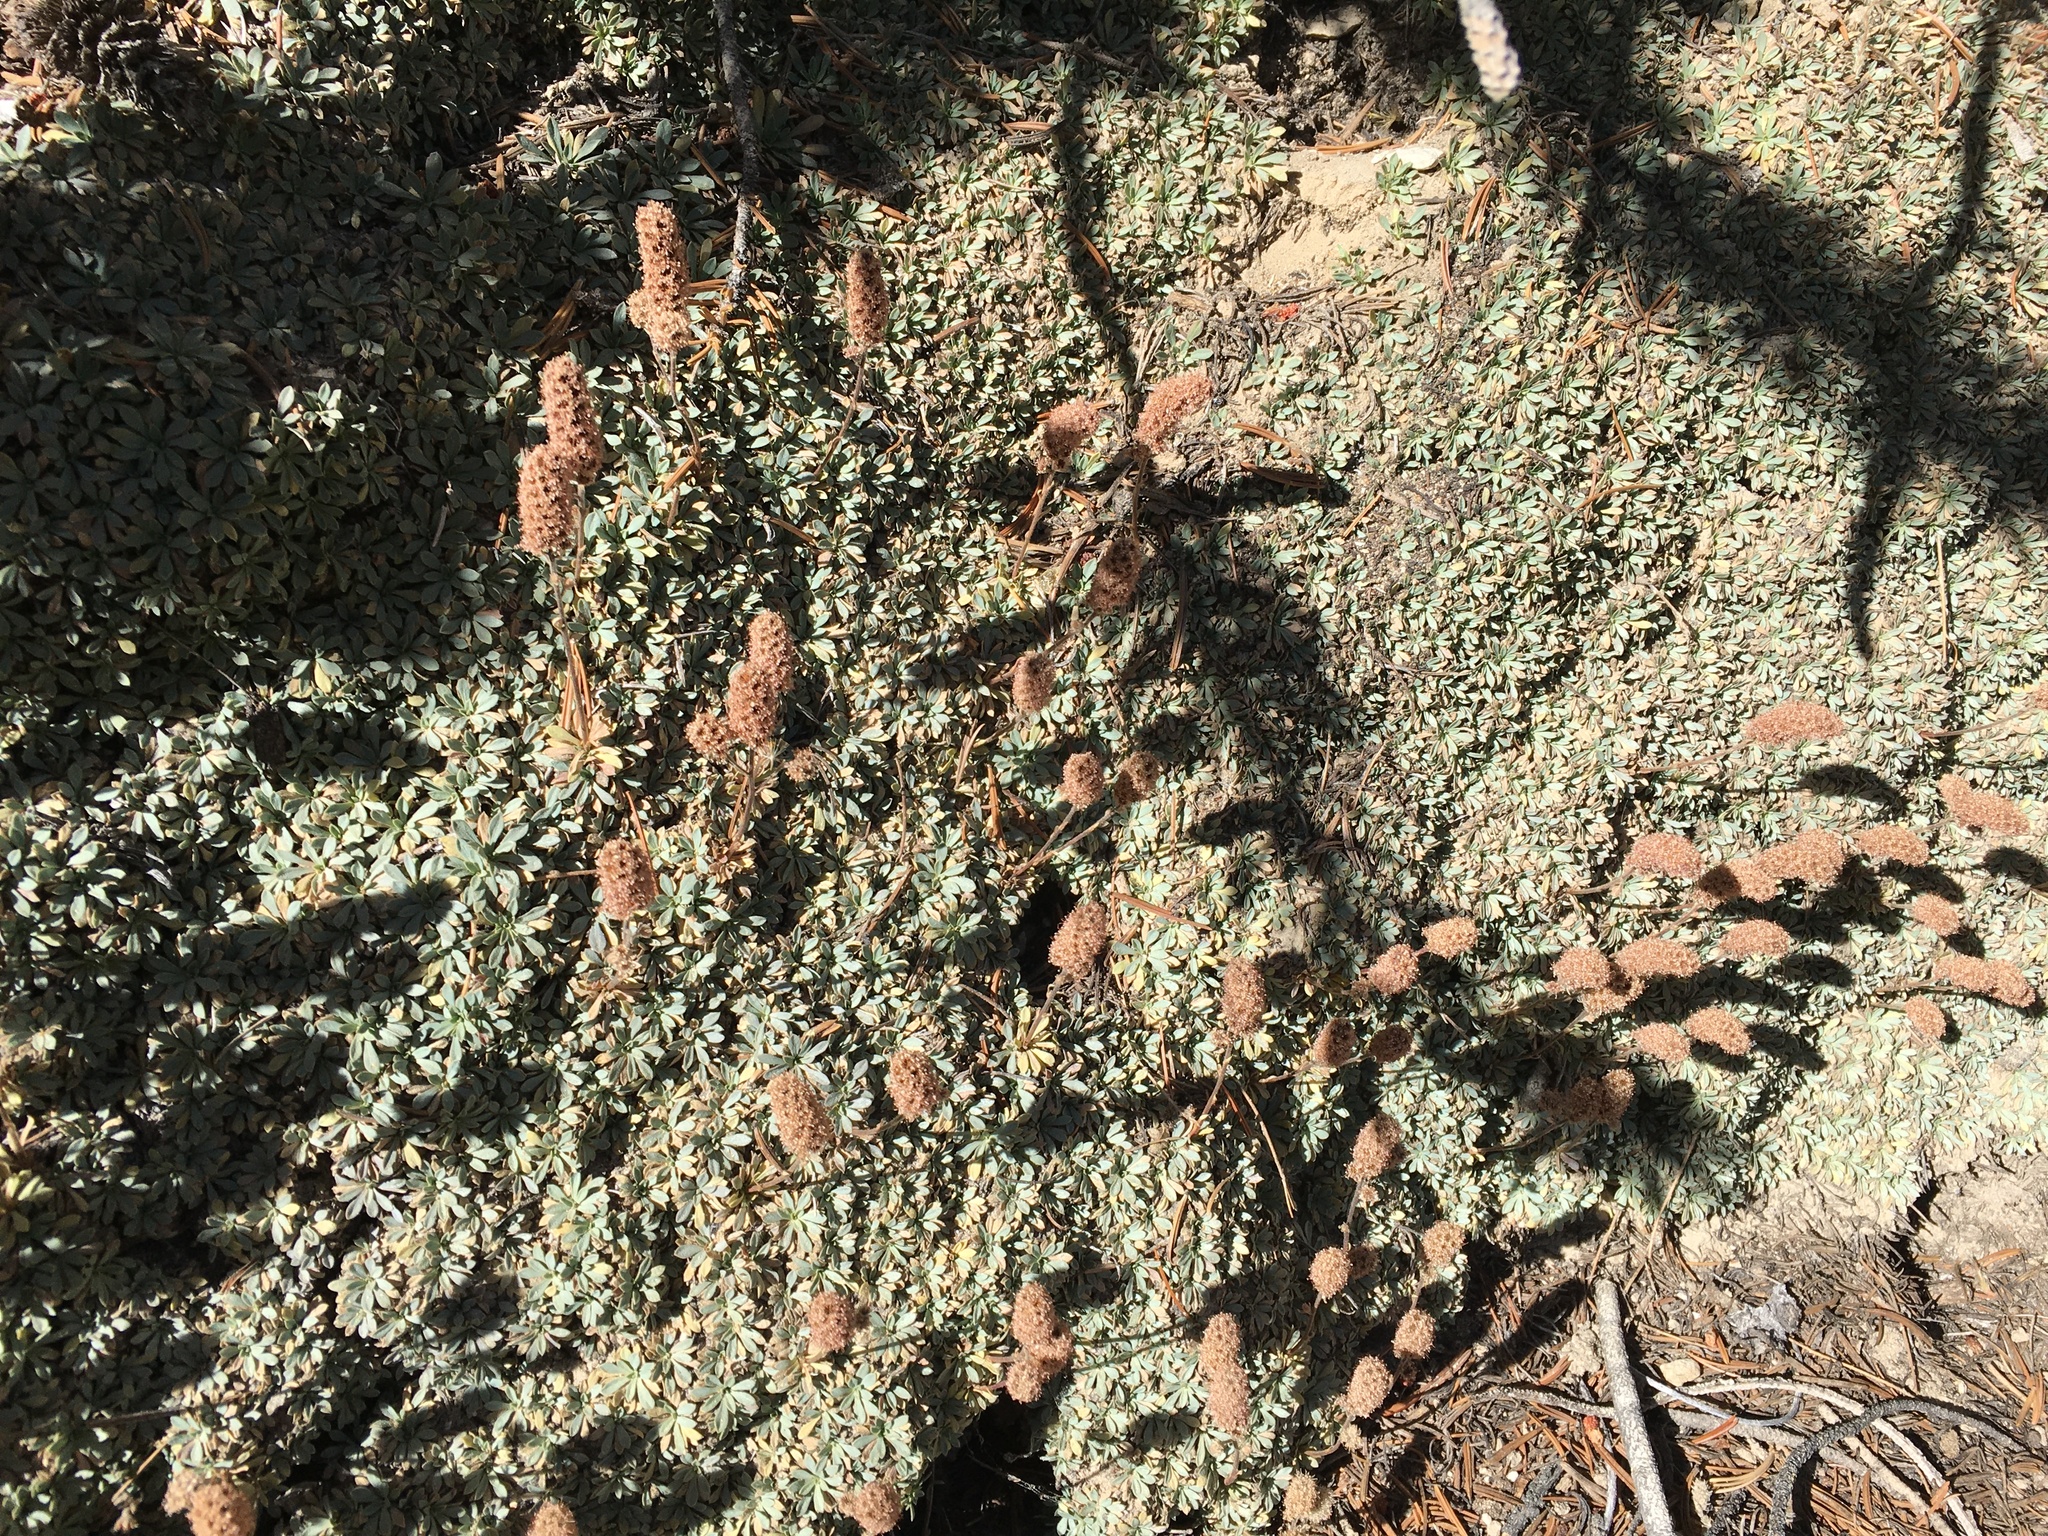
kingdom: Plantae
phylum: Tracheophyta
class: Magnoliopsida
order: Rosales
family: Rosaceae
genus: Petrophytum
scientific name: Petrophytum caespitosum
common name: Mat rockspirea
